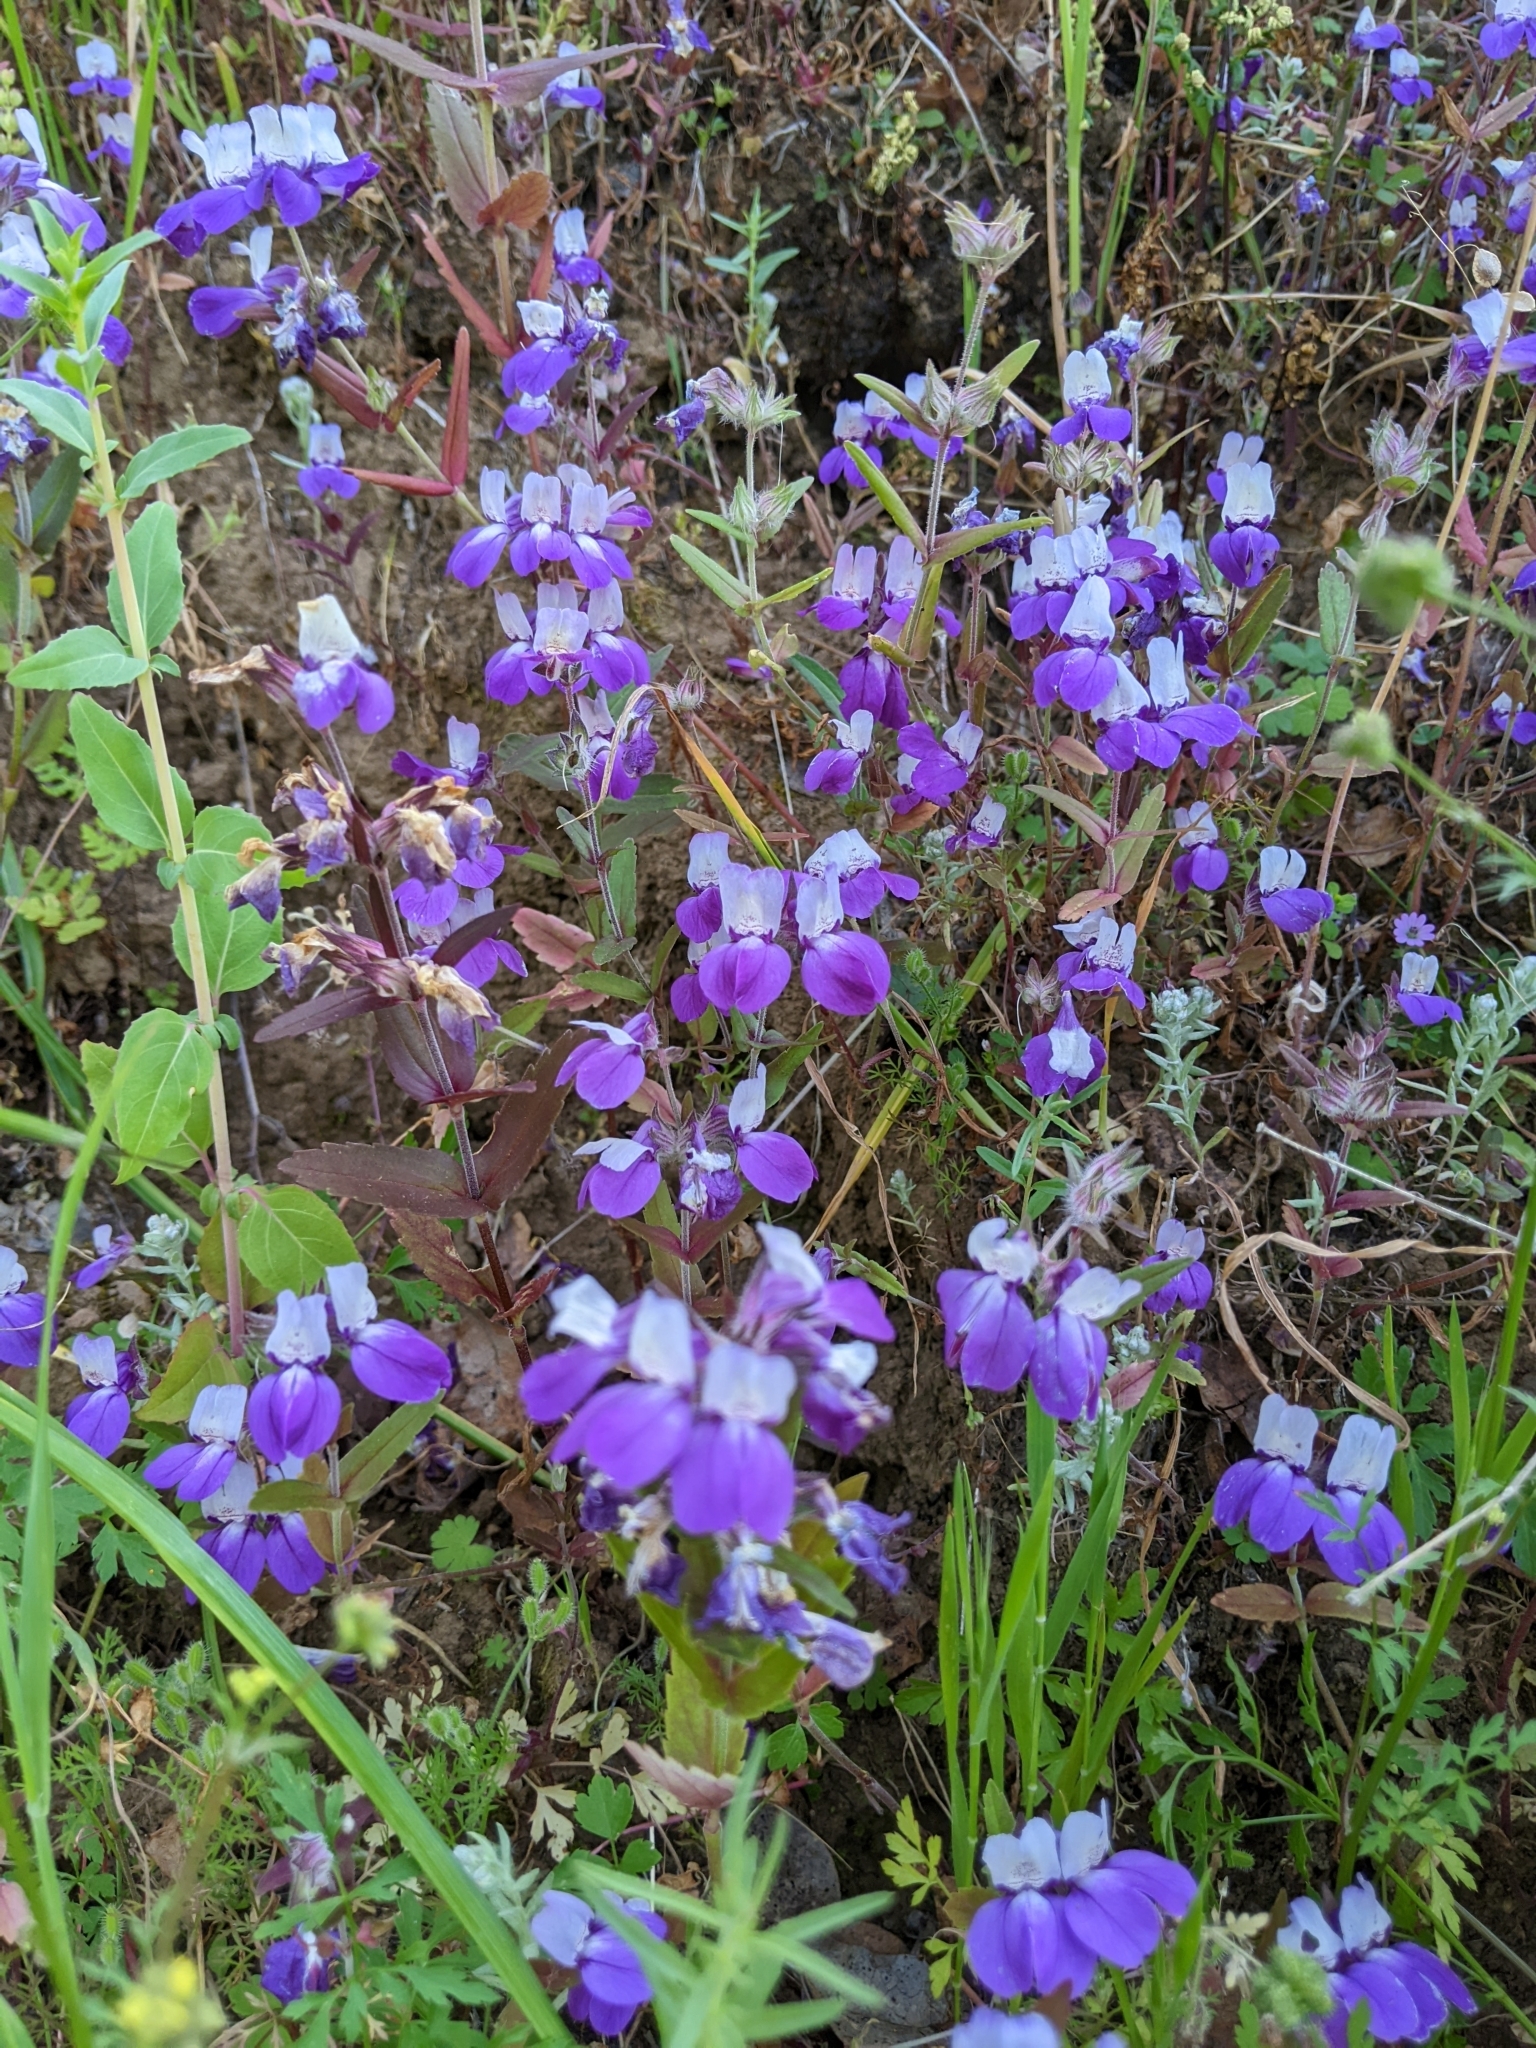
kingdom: Plantae
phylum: Tracheophyta
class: Magnoliopsida
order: Lamiales
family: Plantaginaceae
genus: Collinsia
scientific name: Collinsia heterophylla
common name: Chinese-houses
